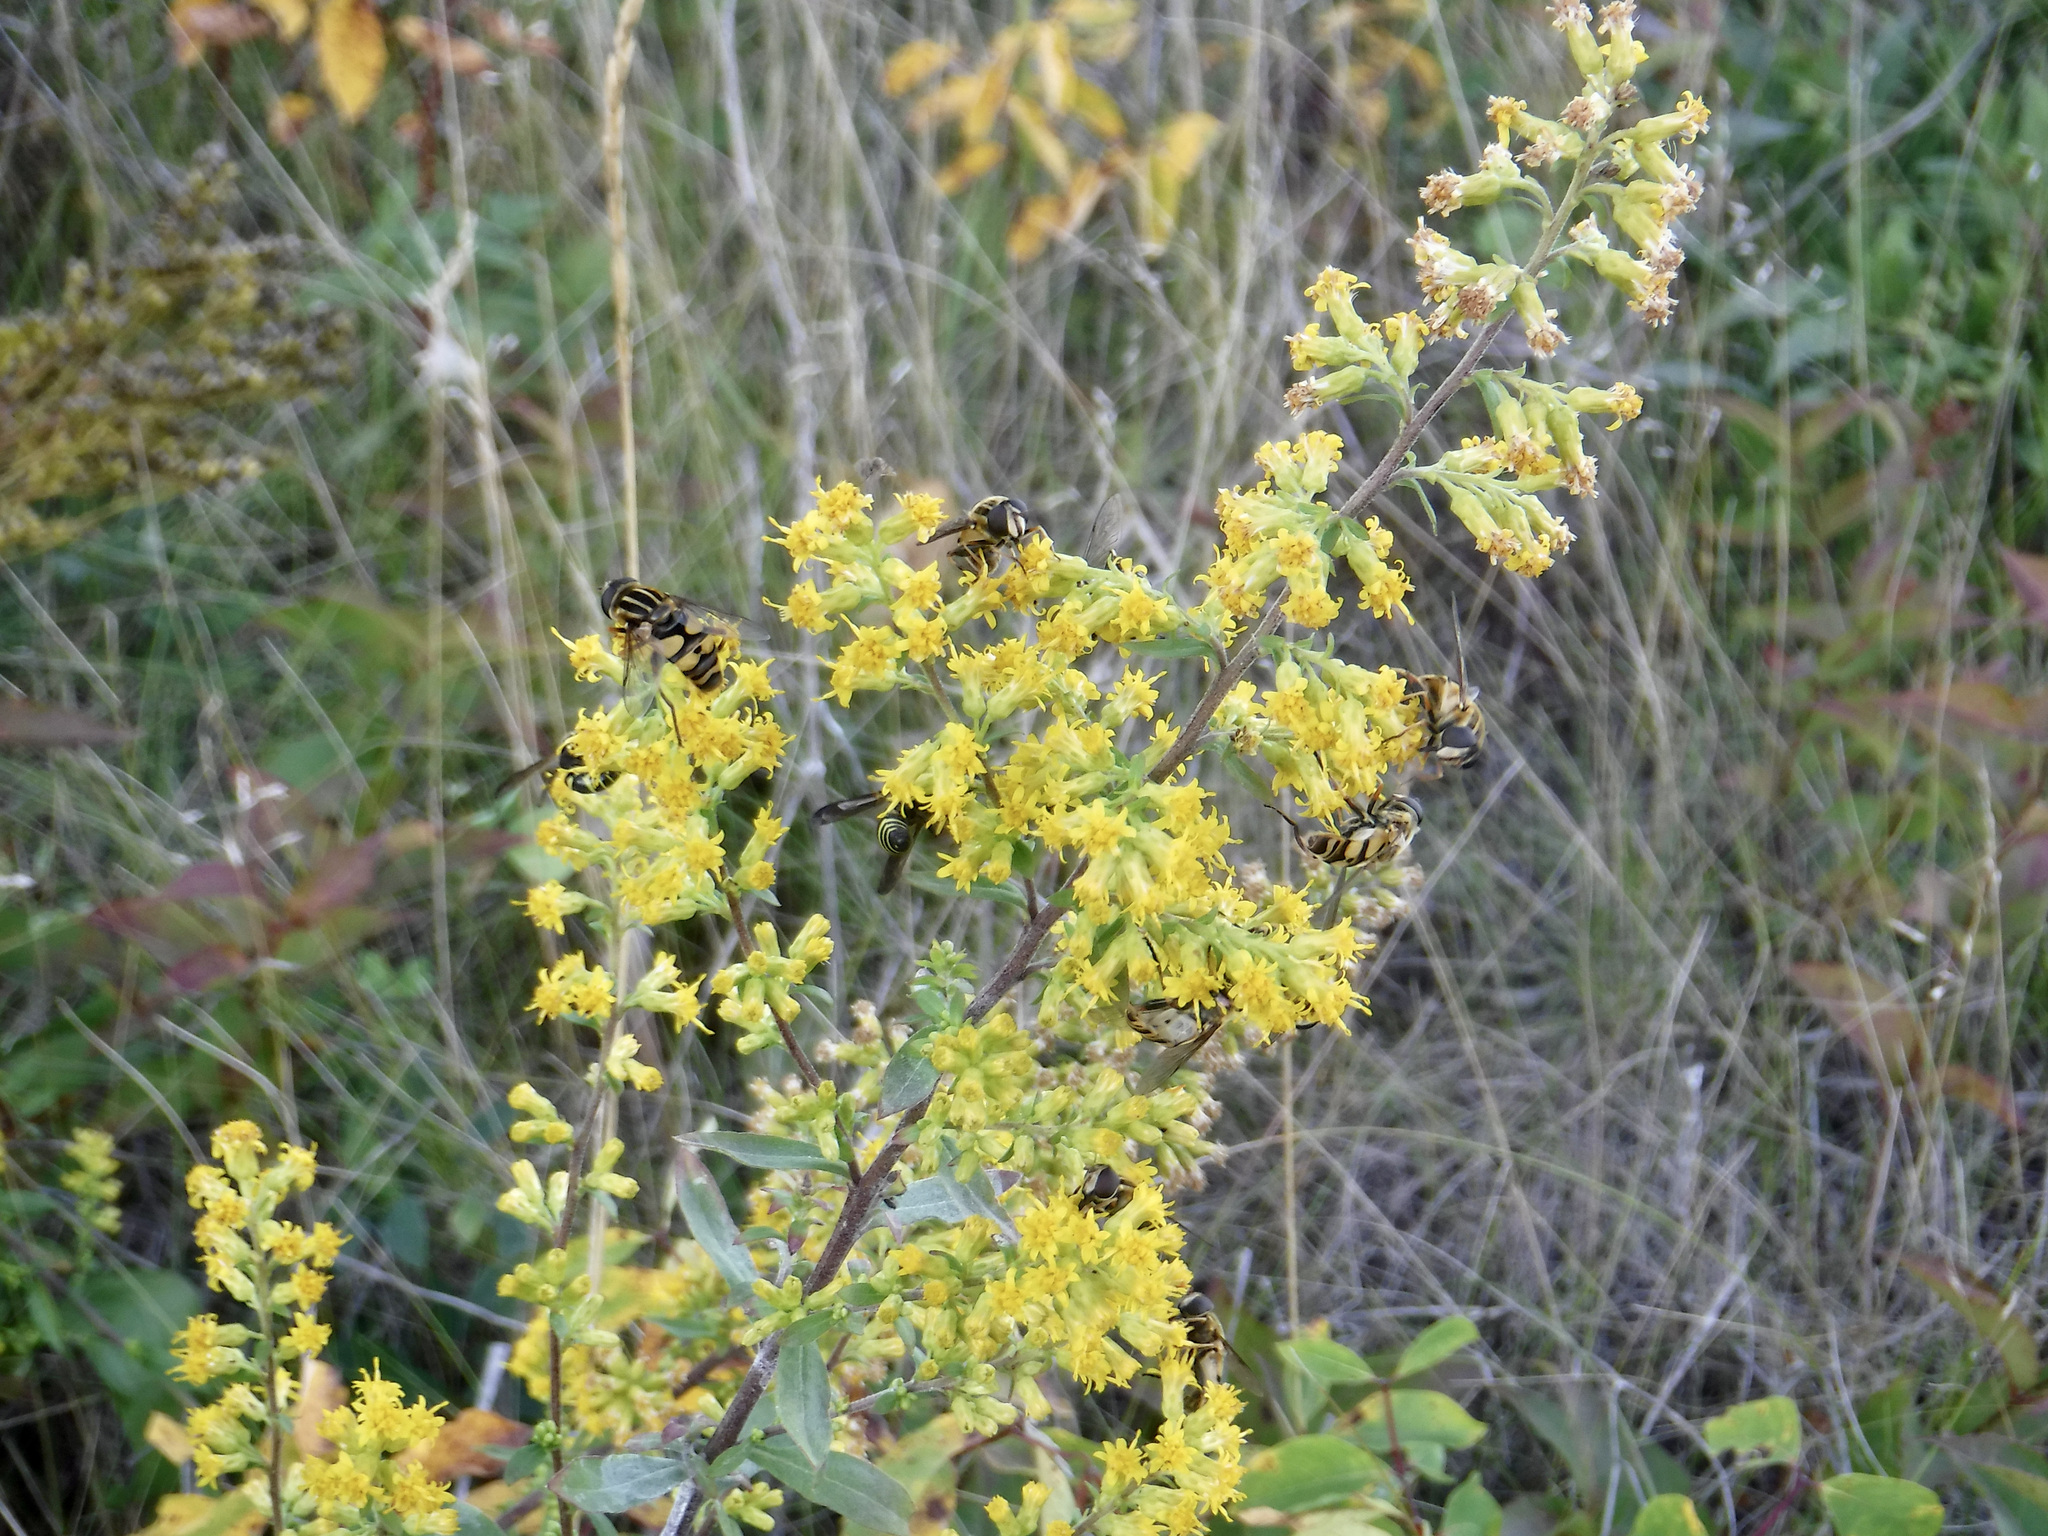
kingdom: Animalia
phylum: Arthropoda
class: Insecta
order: Diptera
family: Syrphidae
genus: Helophilus
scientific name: Helophilus fasciatus
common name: Narrow-headed marsh fly
